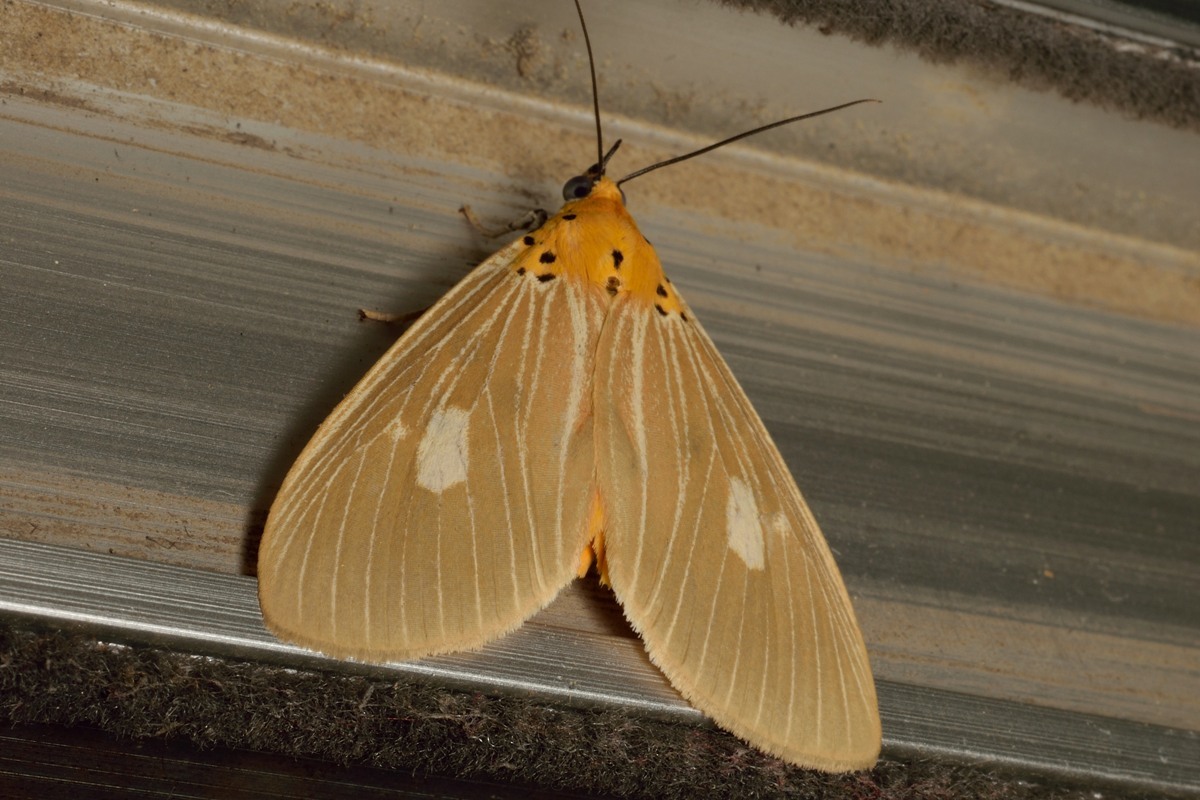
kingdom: Animalia
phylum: Arthropoda
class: Insecta
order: Lepidoptera
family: Erebidae
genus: Asota
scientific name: Asota plaginota
